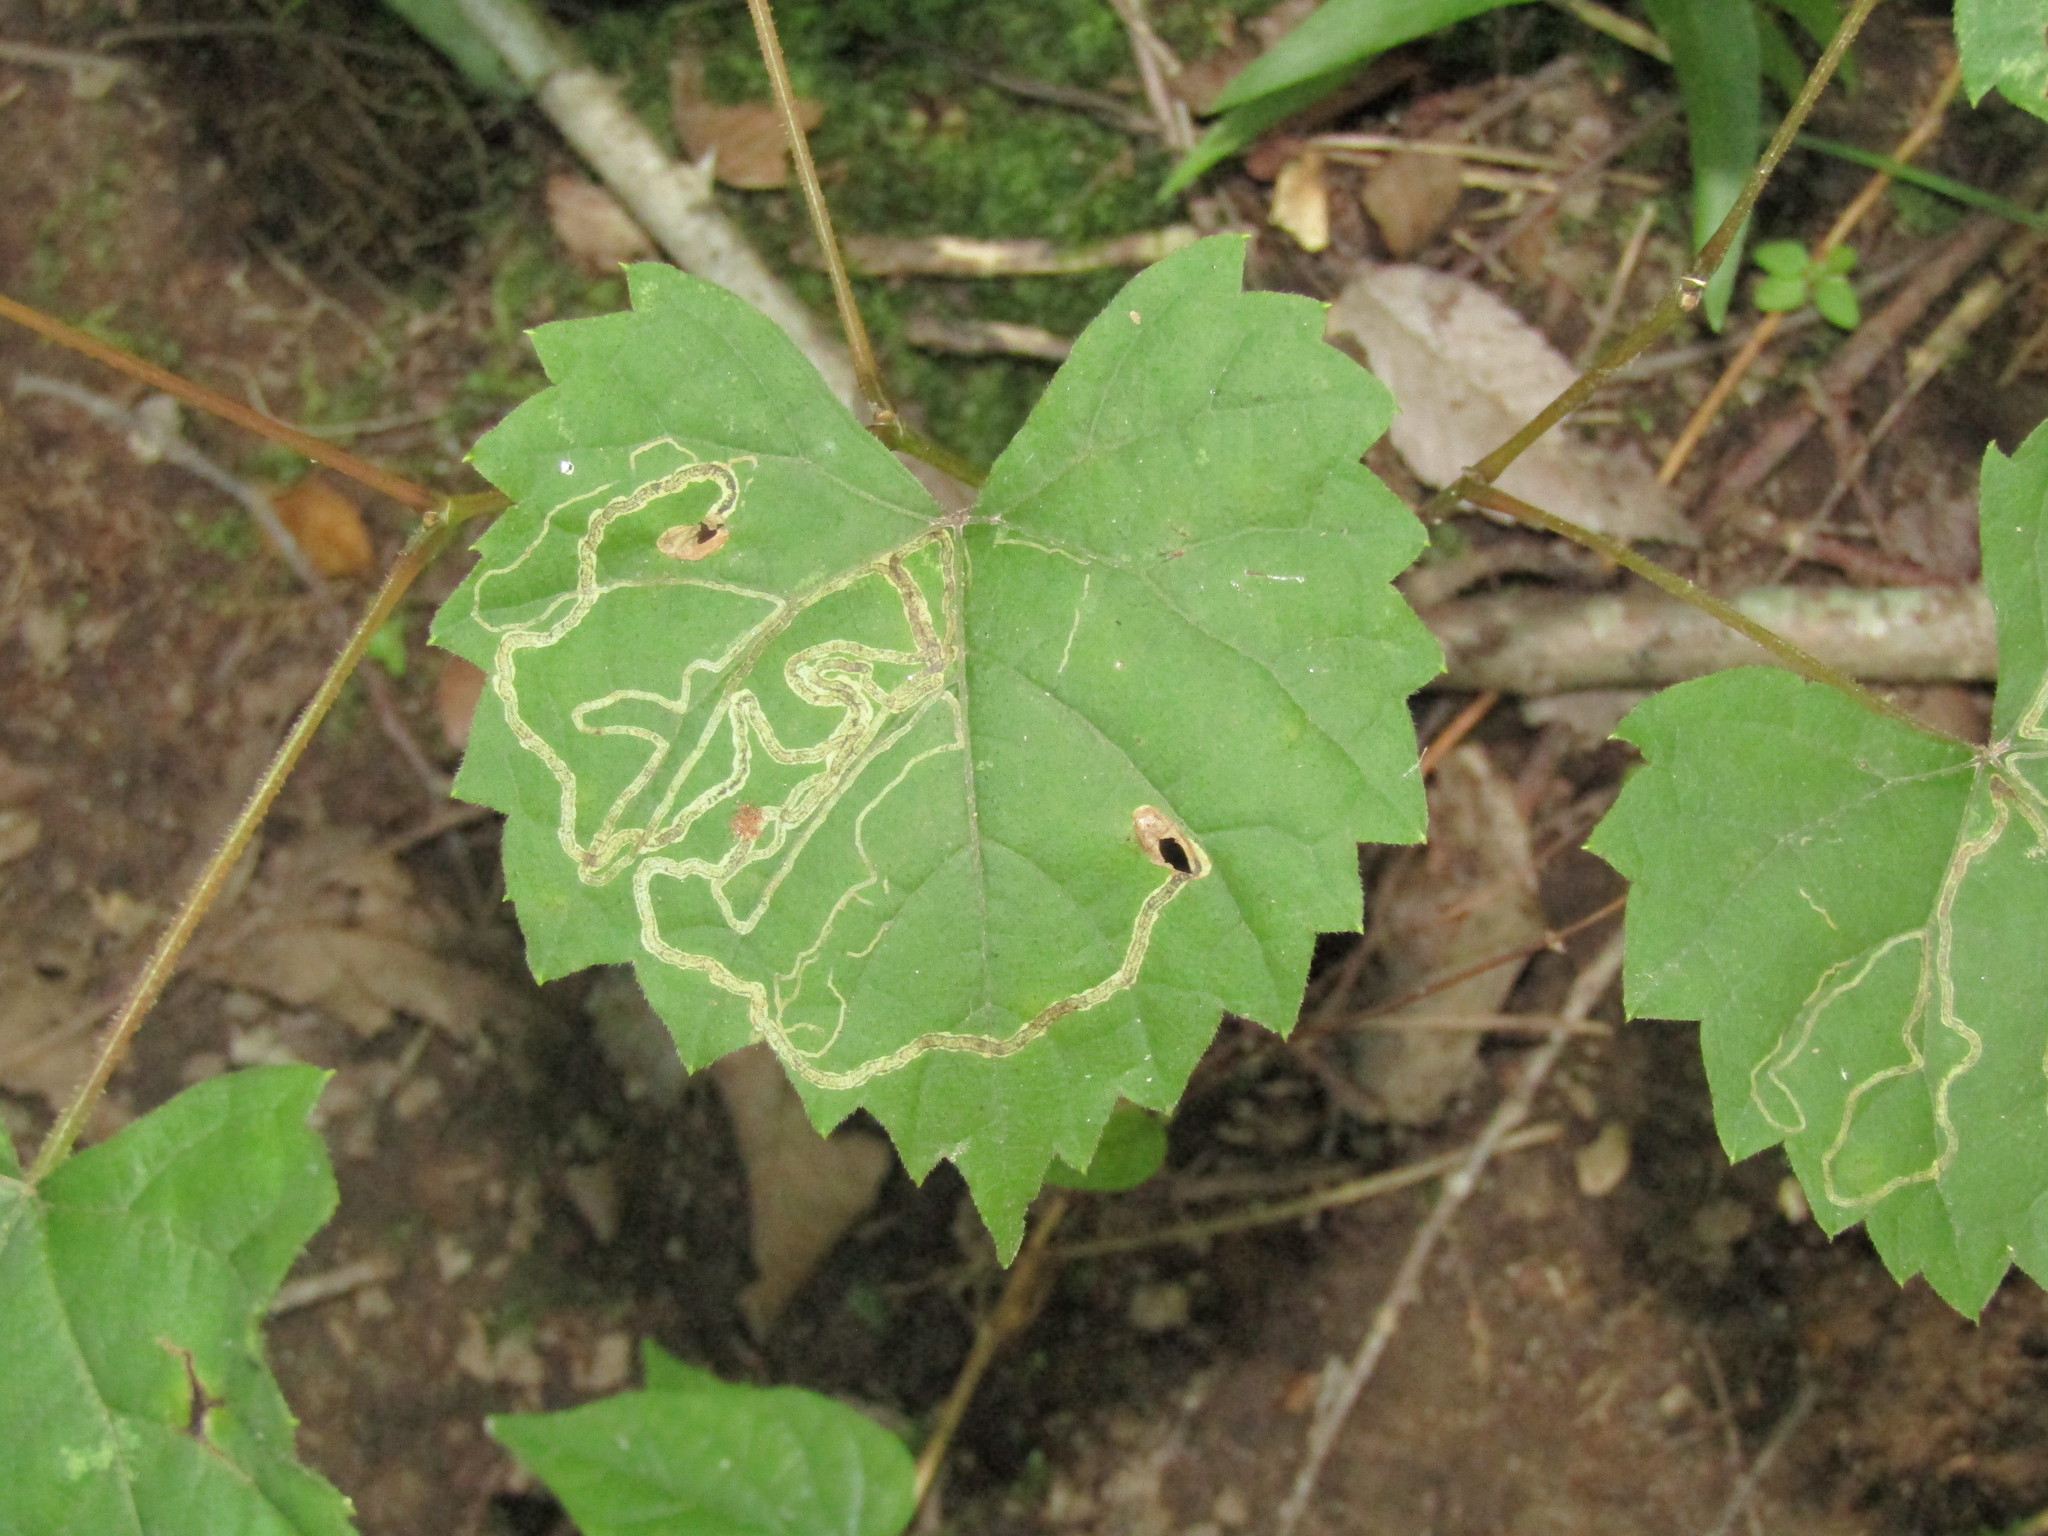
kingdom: Animalia
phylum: Arthropoda
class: Insecta
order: Lepidoptera
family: Gracillariidae
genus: Phyllocnistis
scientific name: Phyllocnistis vitifoliella
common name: Grape leaf-miner moth
